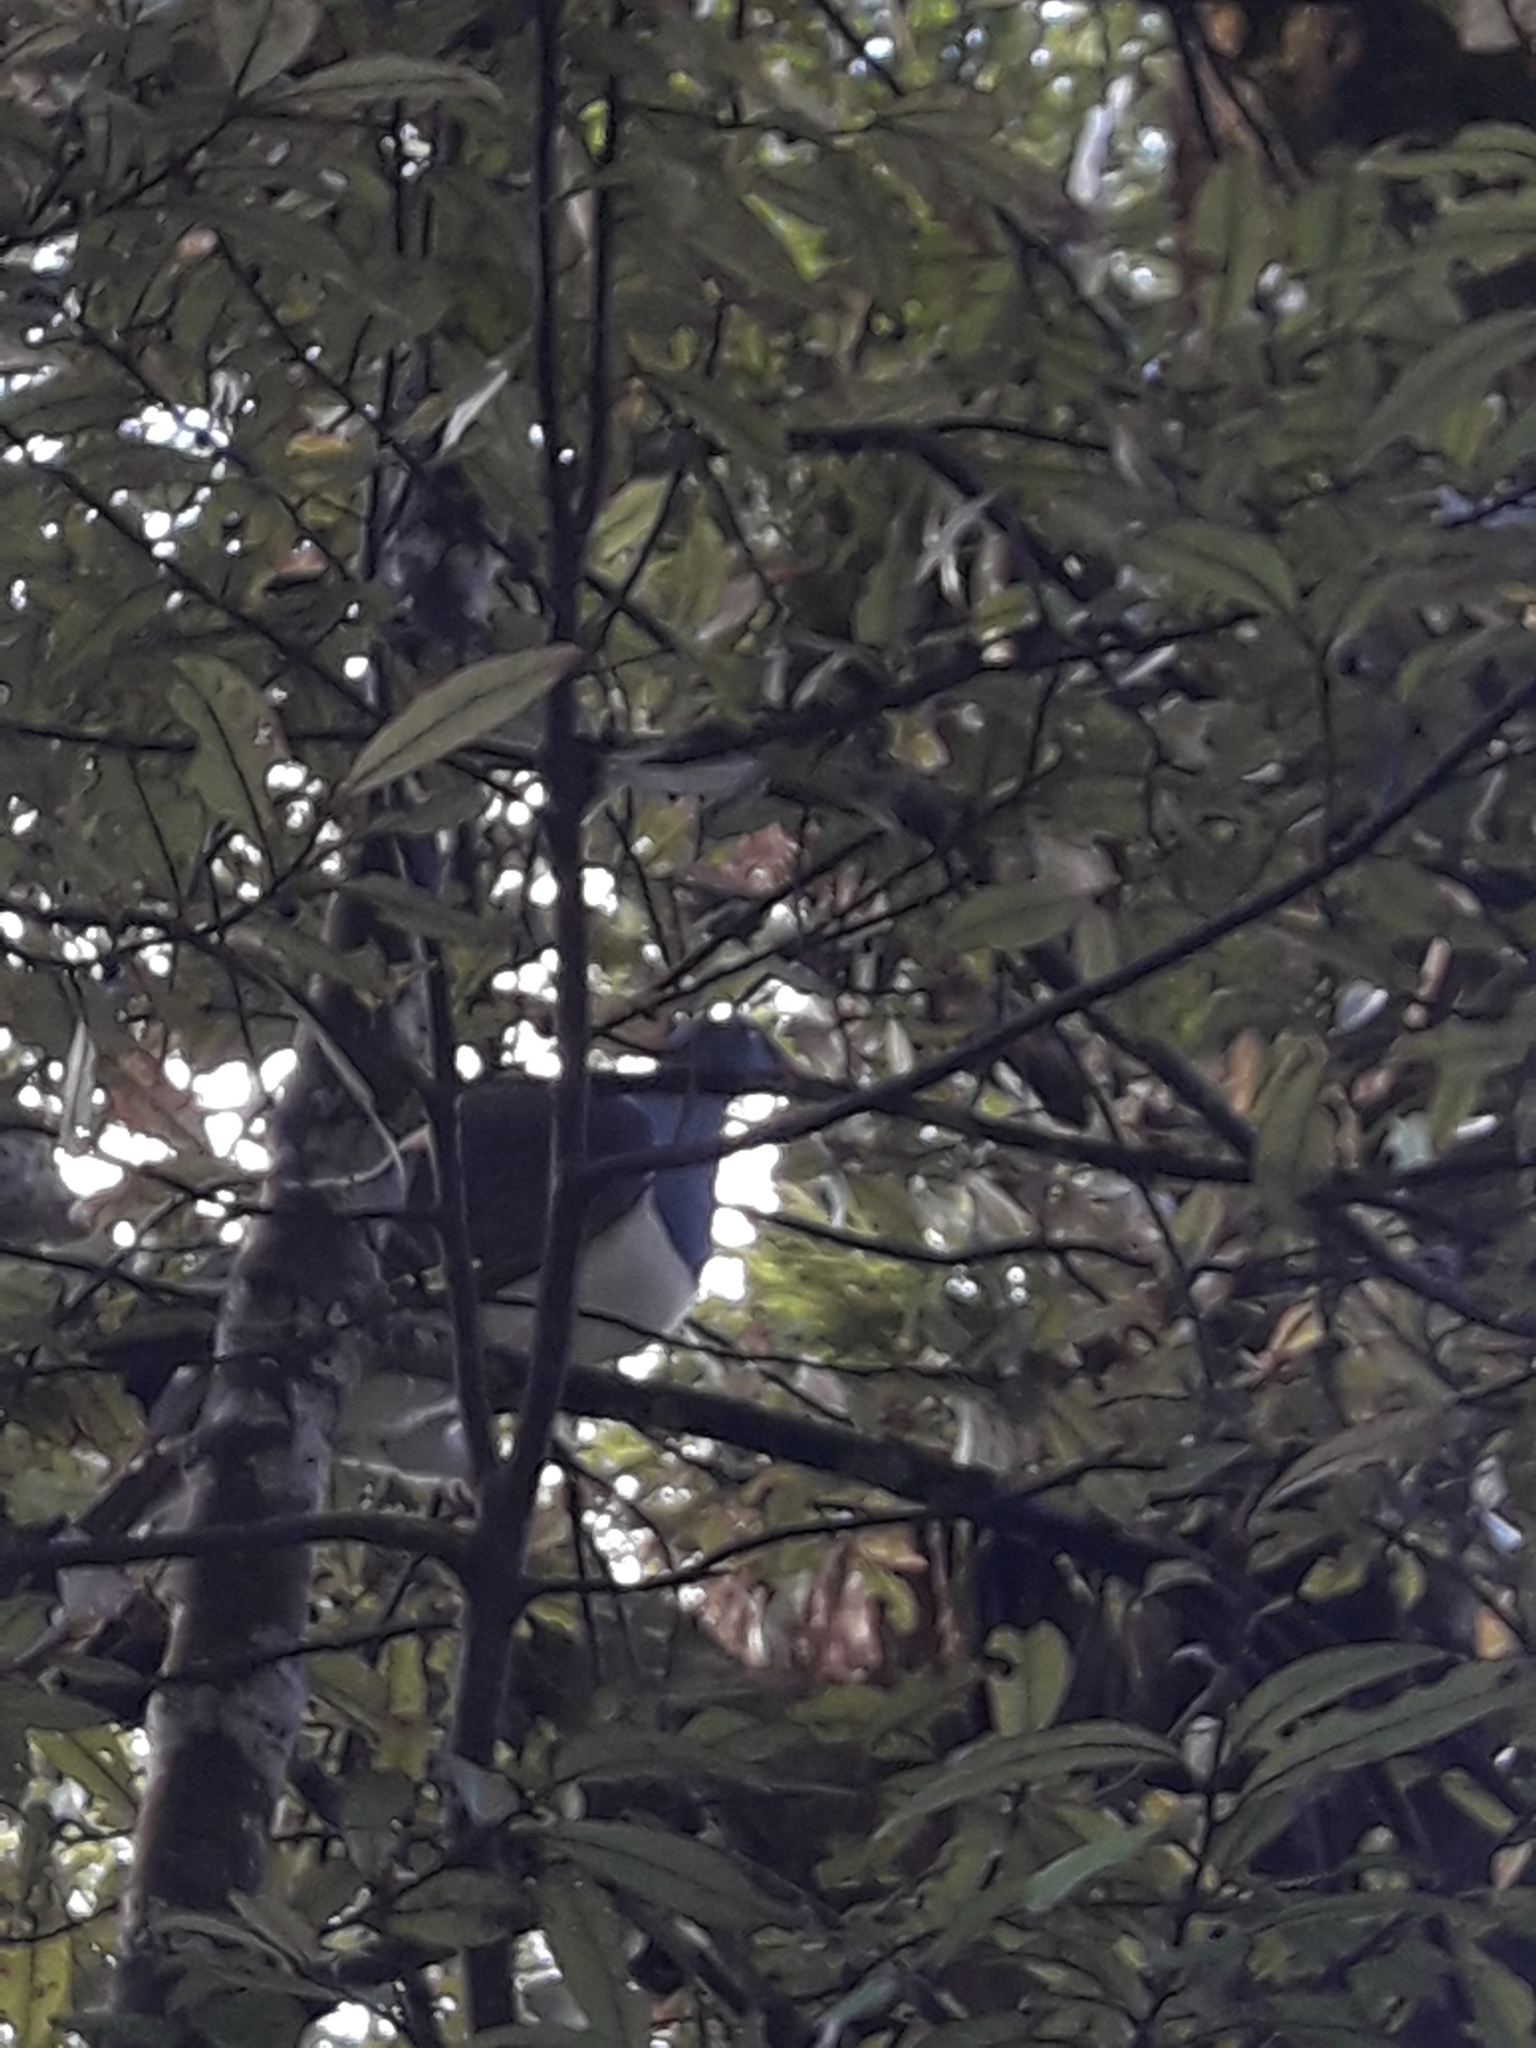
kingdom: Animalia
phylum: Chordata
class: Aves
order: Columbiformes
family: Columbidae
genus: Hemiphaga
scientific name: Hemiphaga novaeseelandiae
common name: New zealand pigeon
